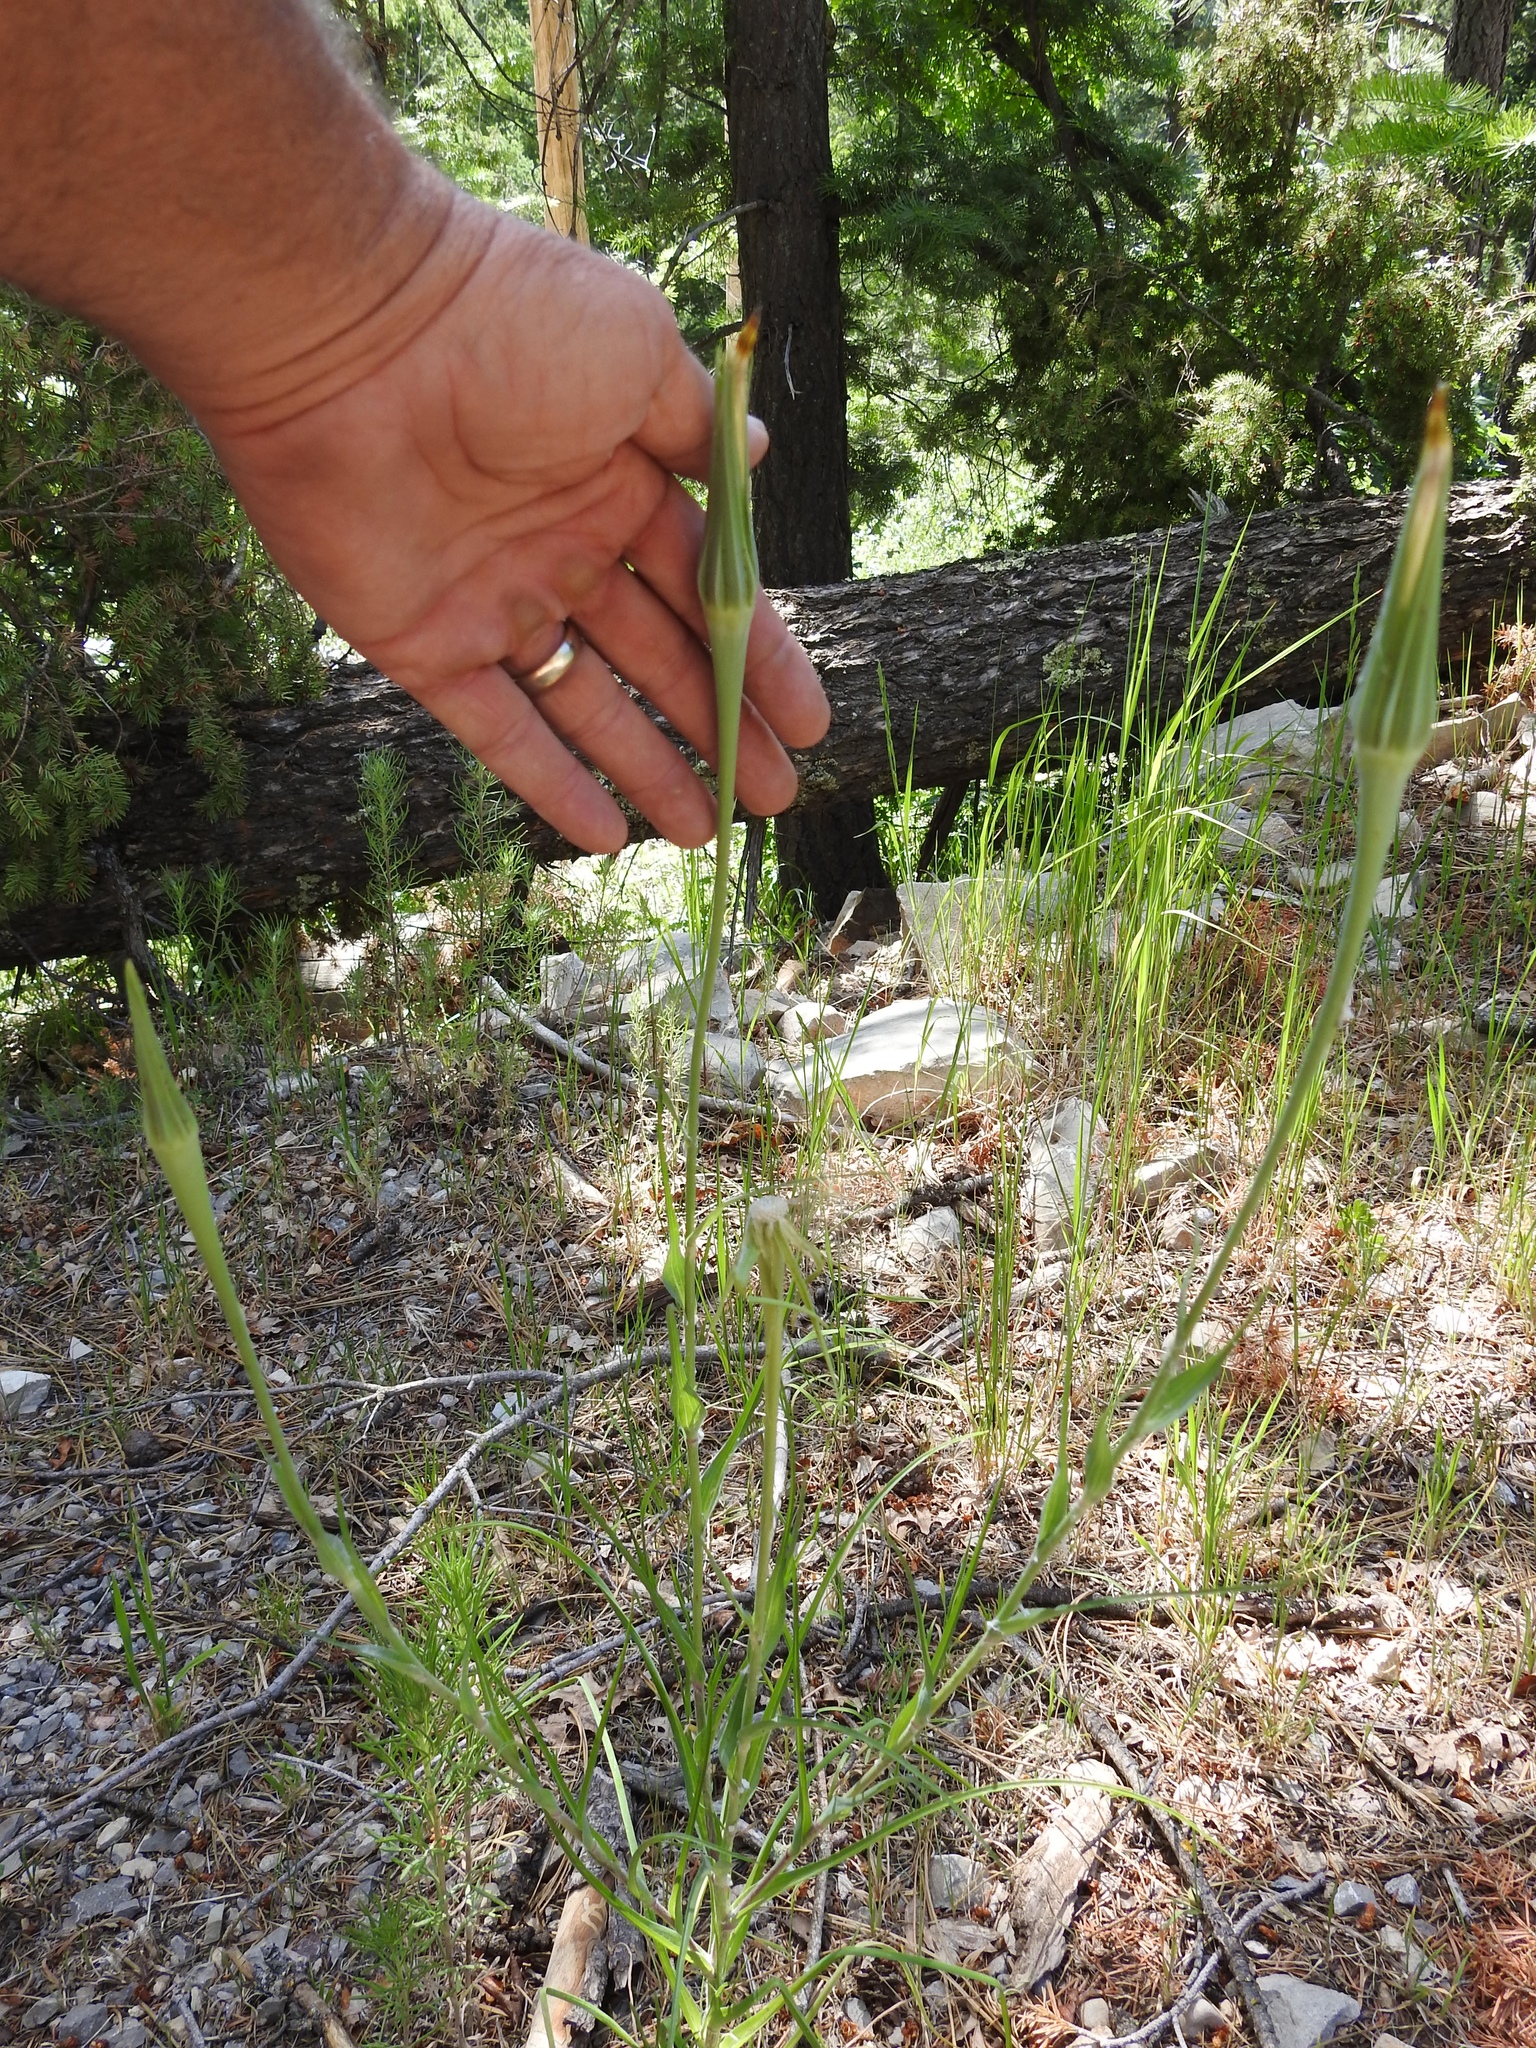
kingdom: Plantae
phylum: Tracheophyta
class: Magnoliopsida
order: Asterales
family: Asteraceae
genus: Tragopogon
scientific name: Tragopogon dubius
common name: Yellow salsify
